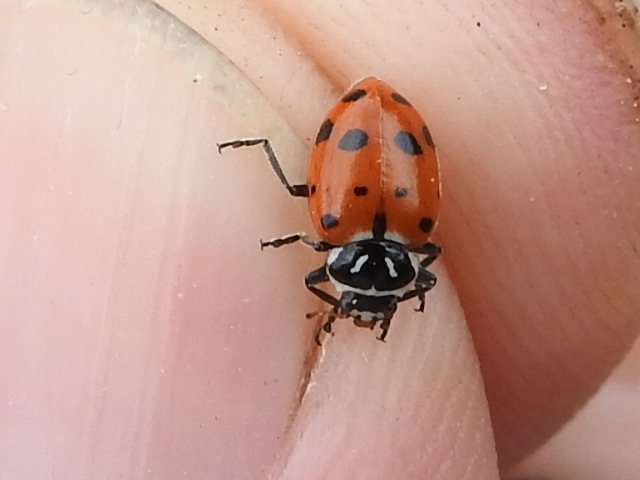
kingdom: Animalia
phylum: Arthropoda
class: Insecta
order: Coleoptera
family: Coccinellidae
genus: Hippodamia
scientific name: Hippodamia convergens
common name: Convergent lady beetle
